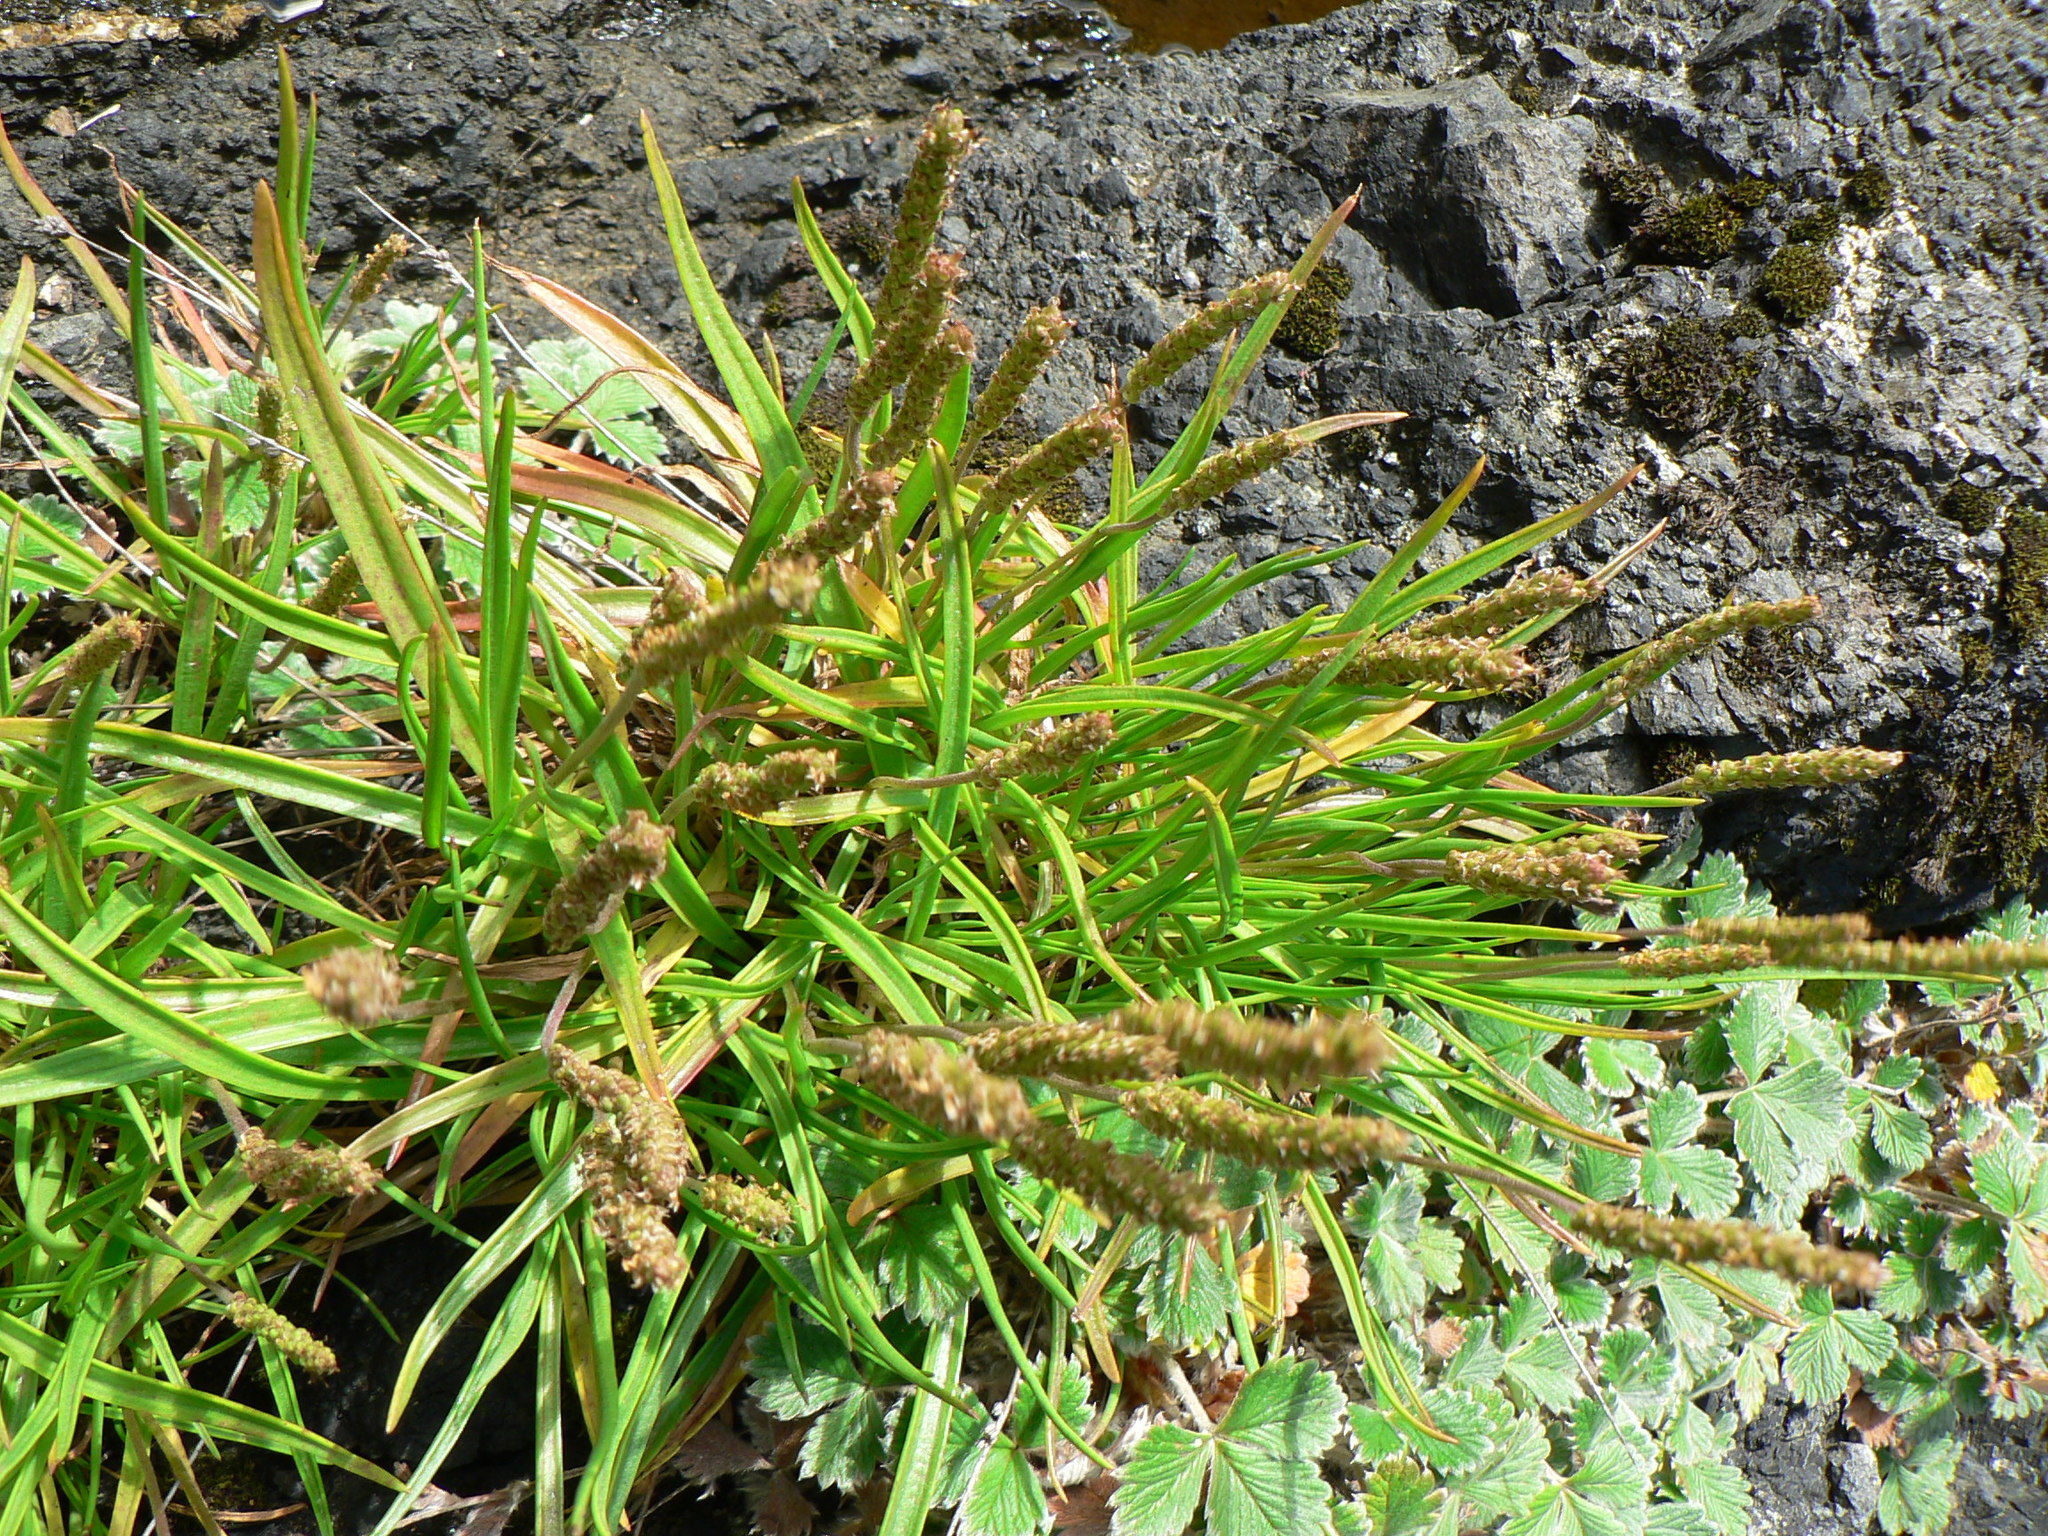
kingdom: Plantae
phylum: Tracheophyta
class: Magnoliopsida
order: Lamiales
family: Plantaginaceae
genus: Plantago
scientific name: Plantago maritima
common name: Sea plantain
